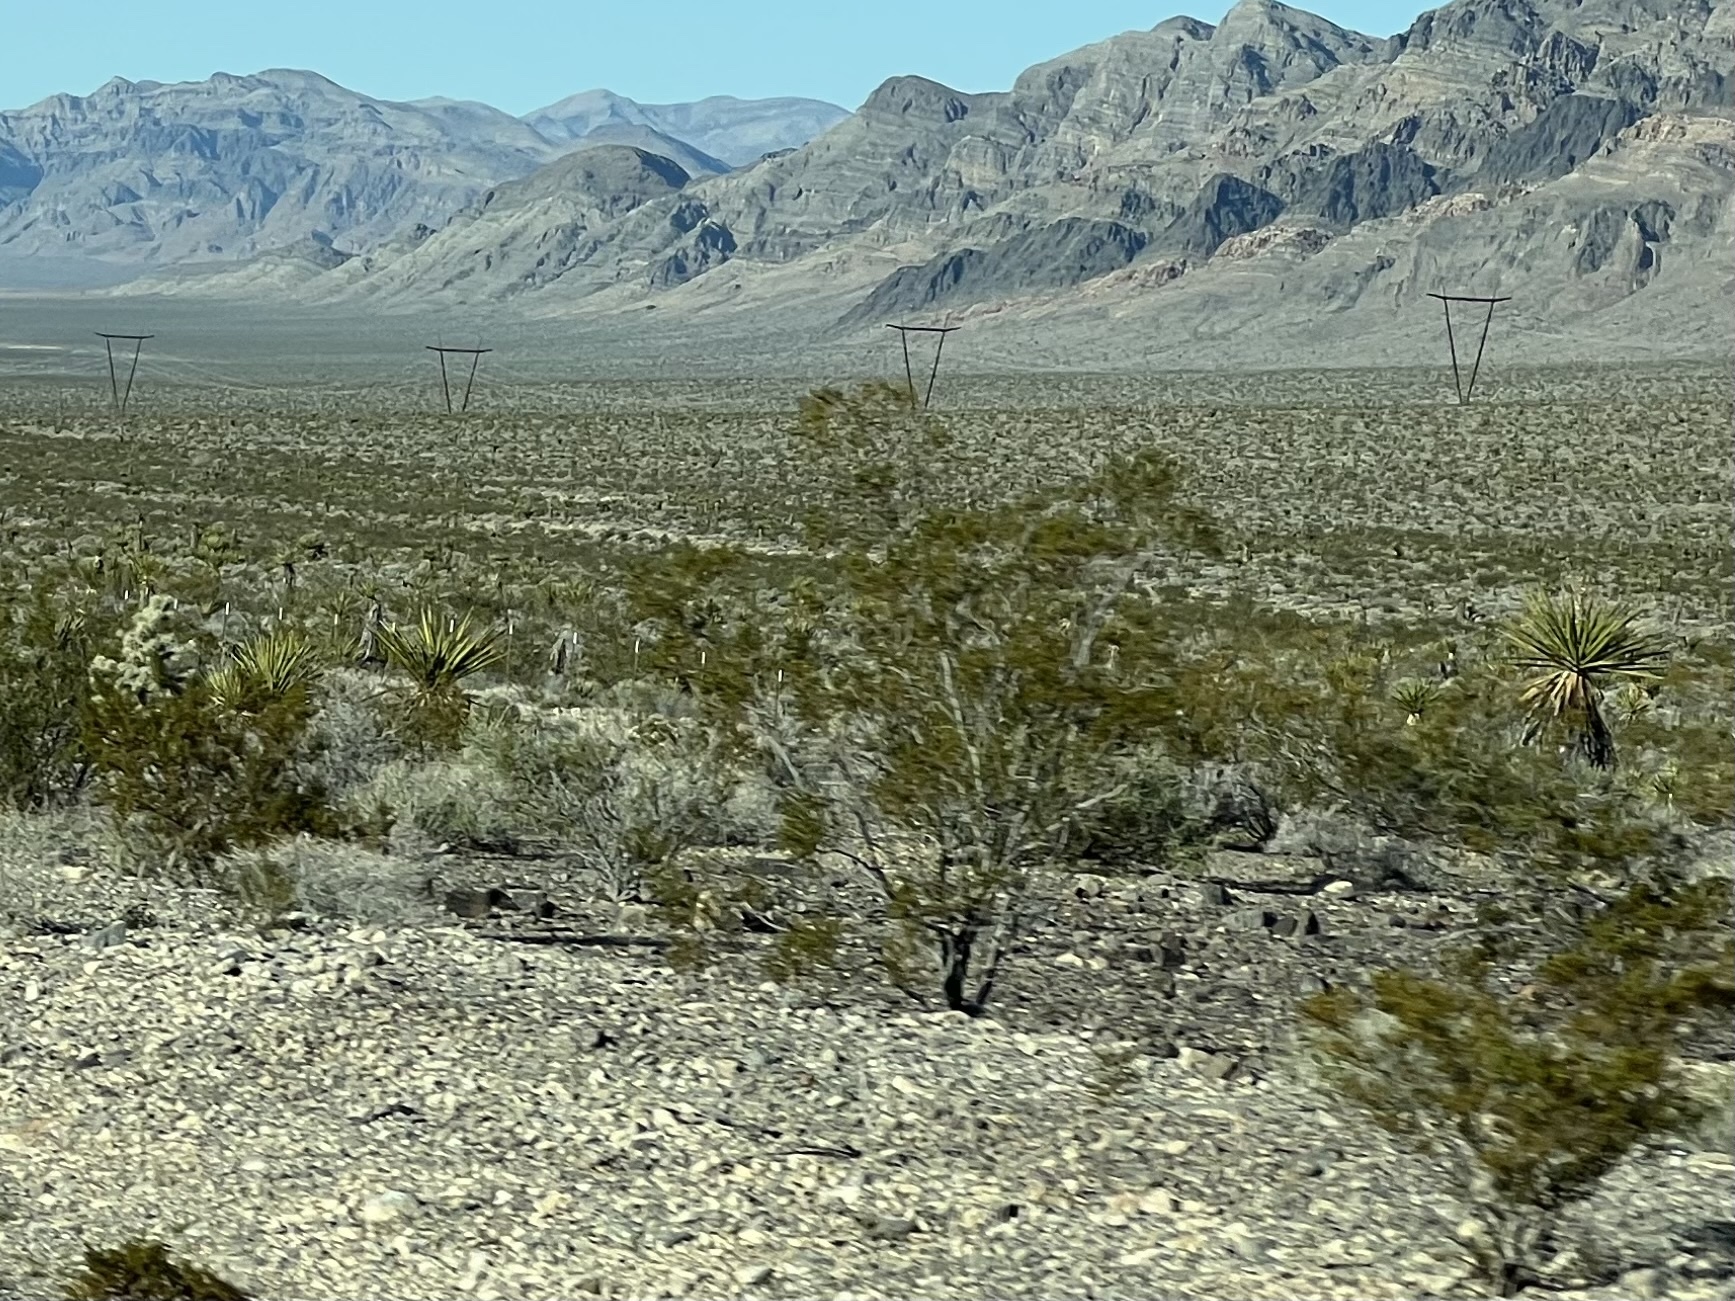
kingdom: Plantae
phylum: Tracheophyta
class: Magnoliopsida
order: Zygophyllales
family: Zygophyllaceae
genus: Larrea
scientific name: Larrea tridentata
